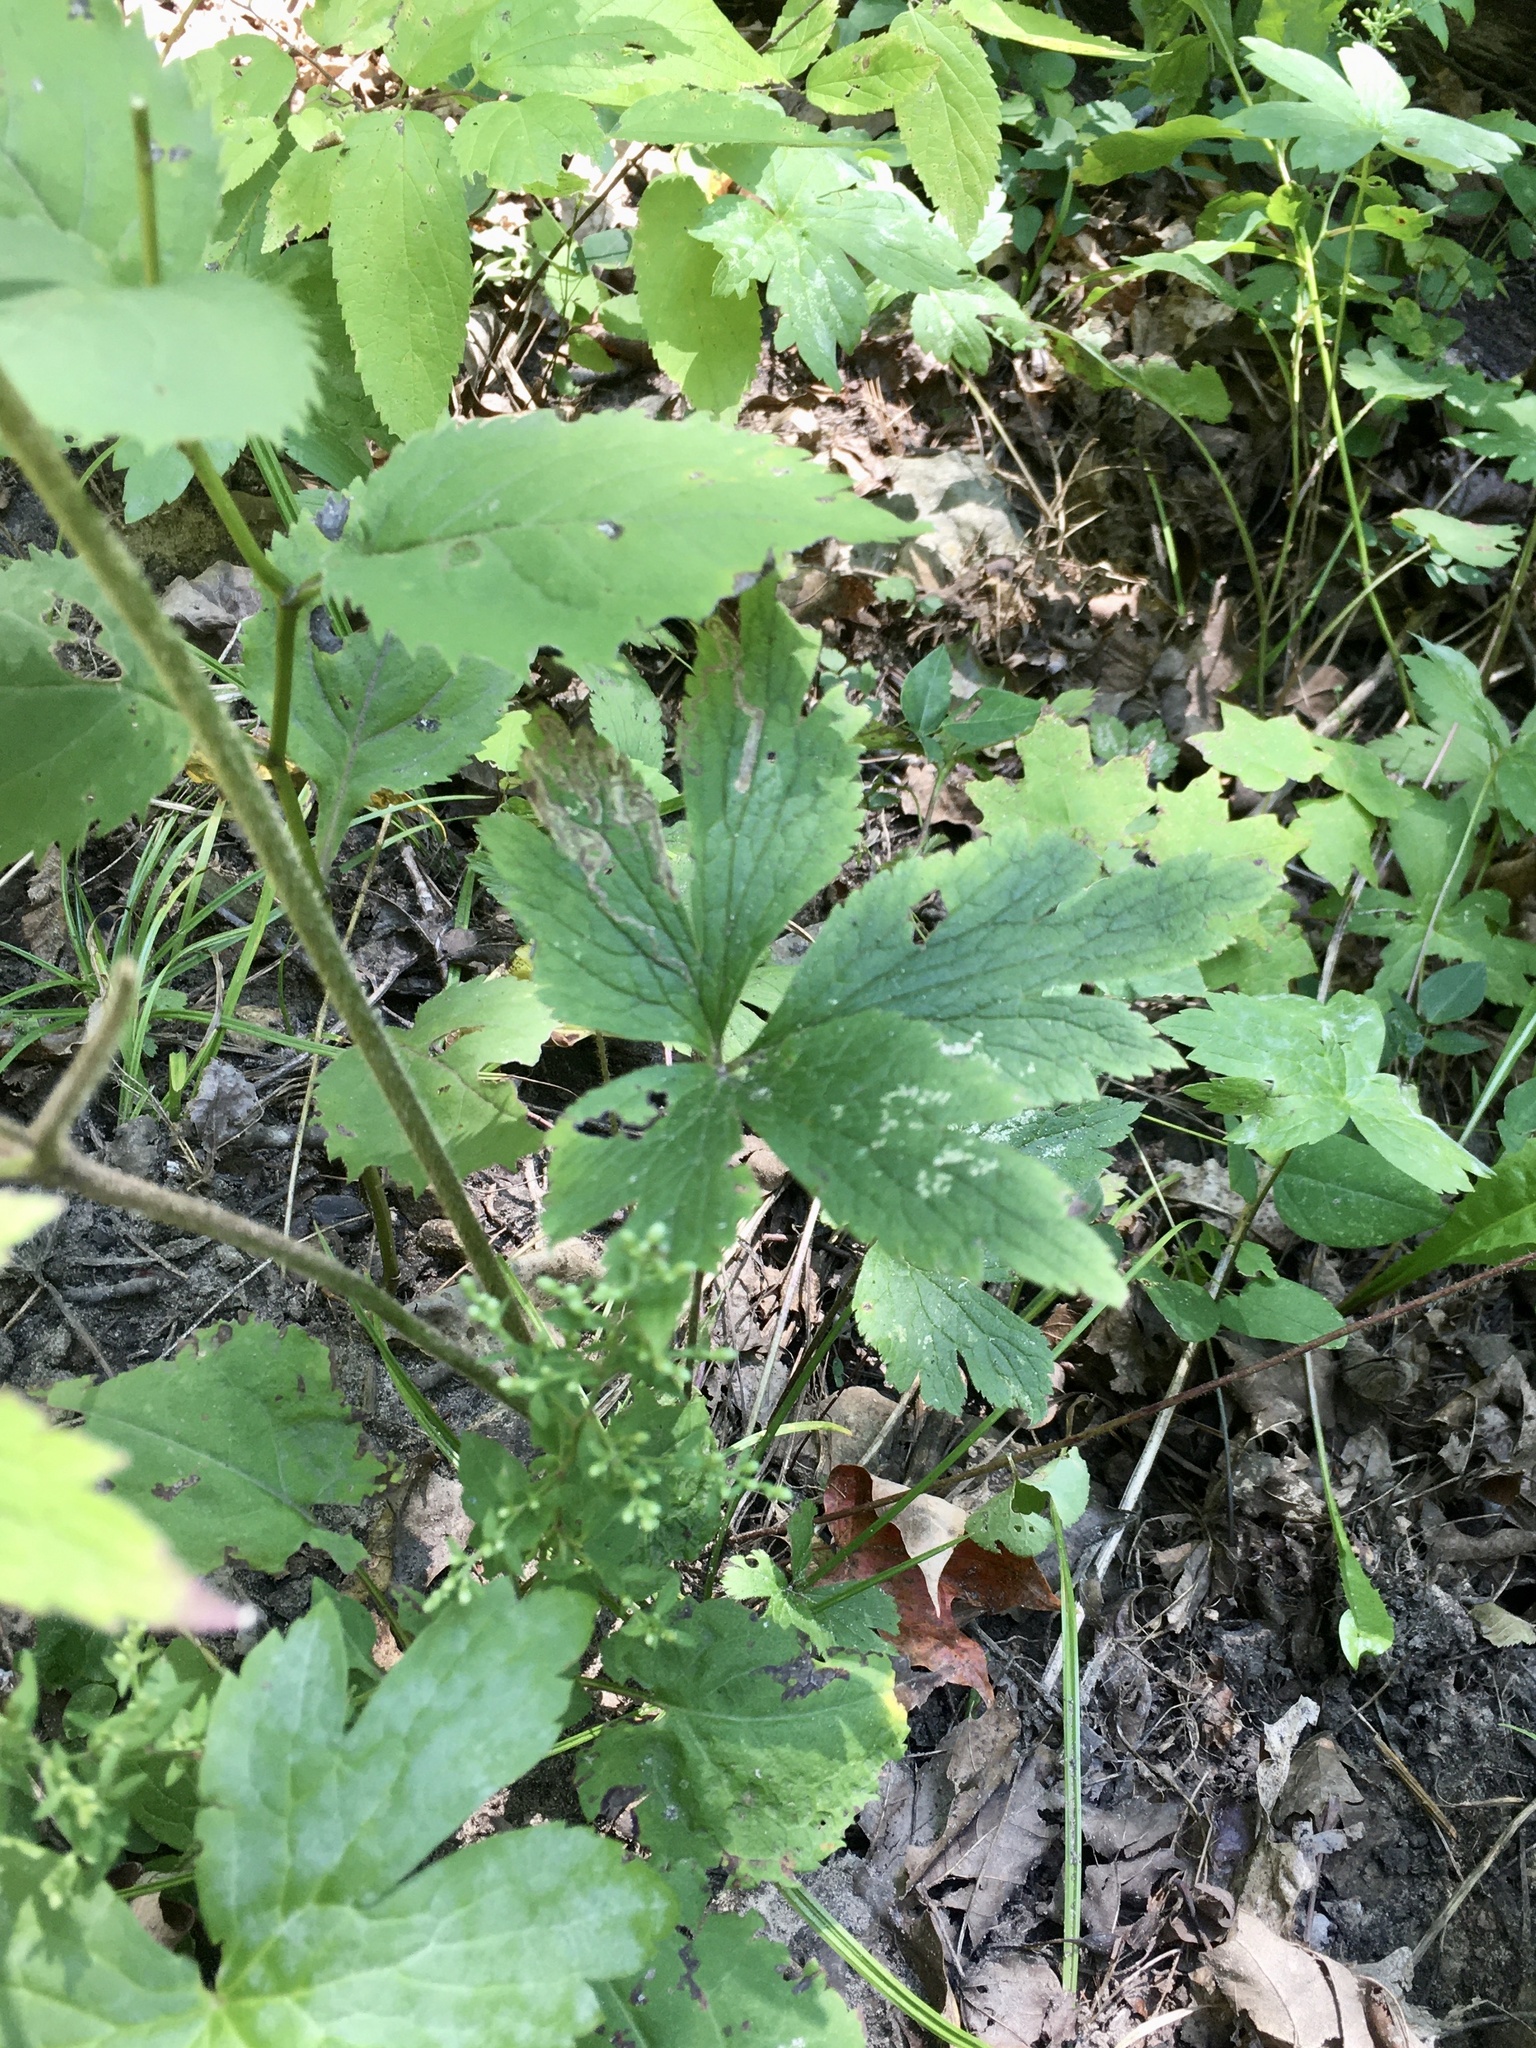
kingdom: Plantae
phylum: Tracheophyta
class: Magnoliopsida
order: Ranunculales
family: Ranunculaceae
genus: Anemone
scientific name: Anemone virginiana
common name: Tall anemone
